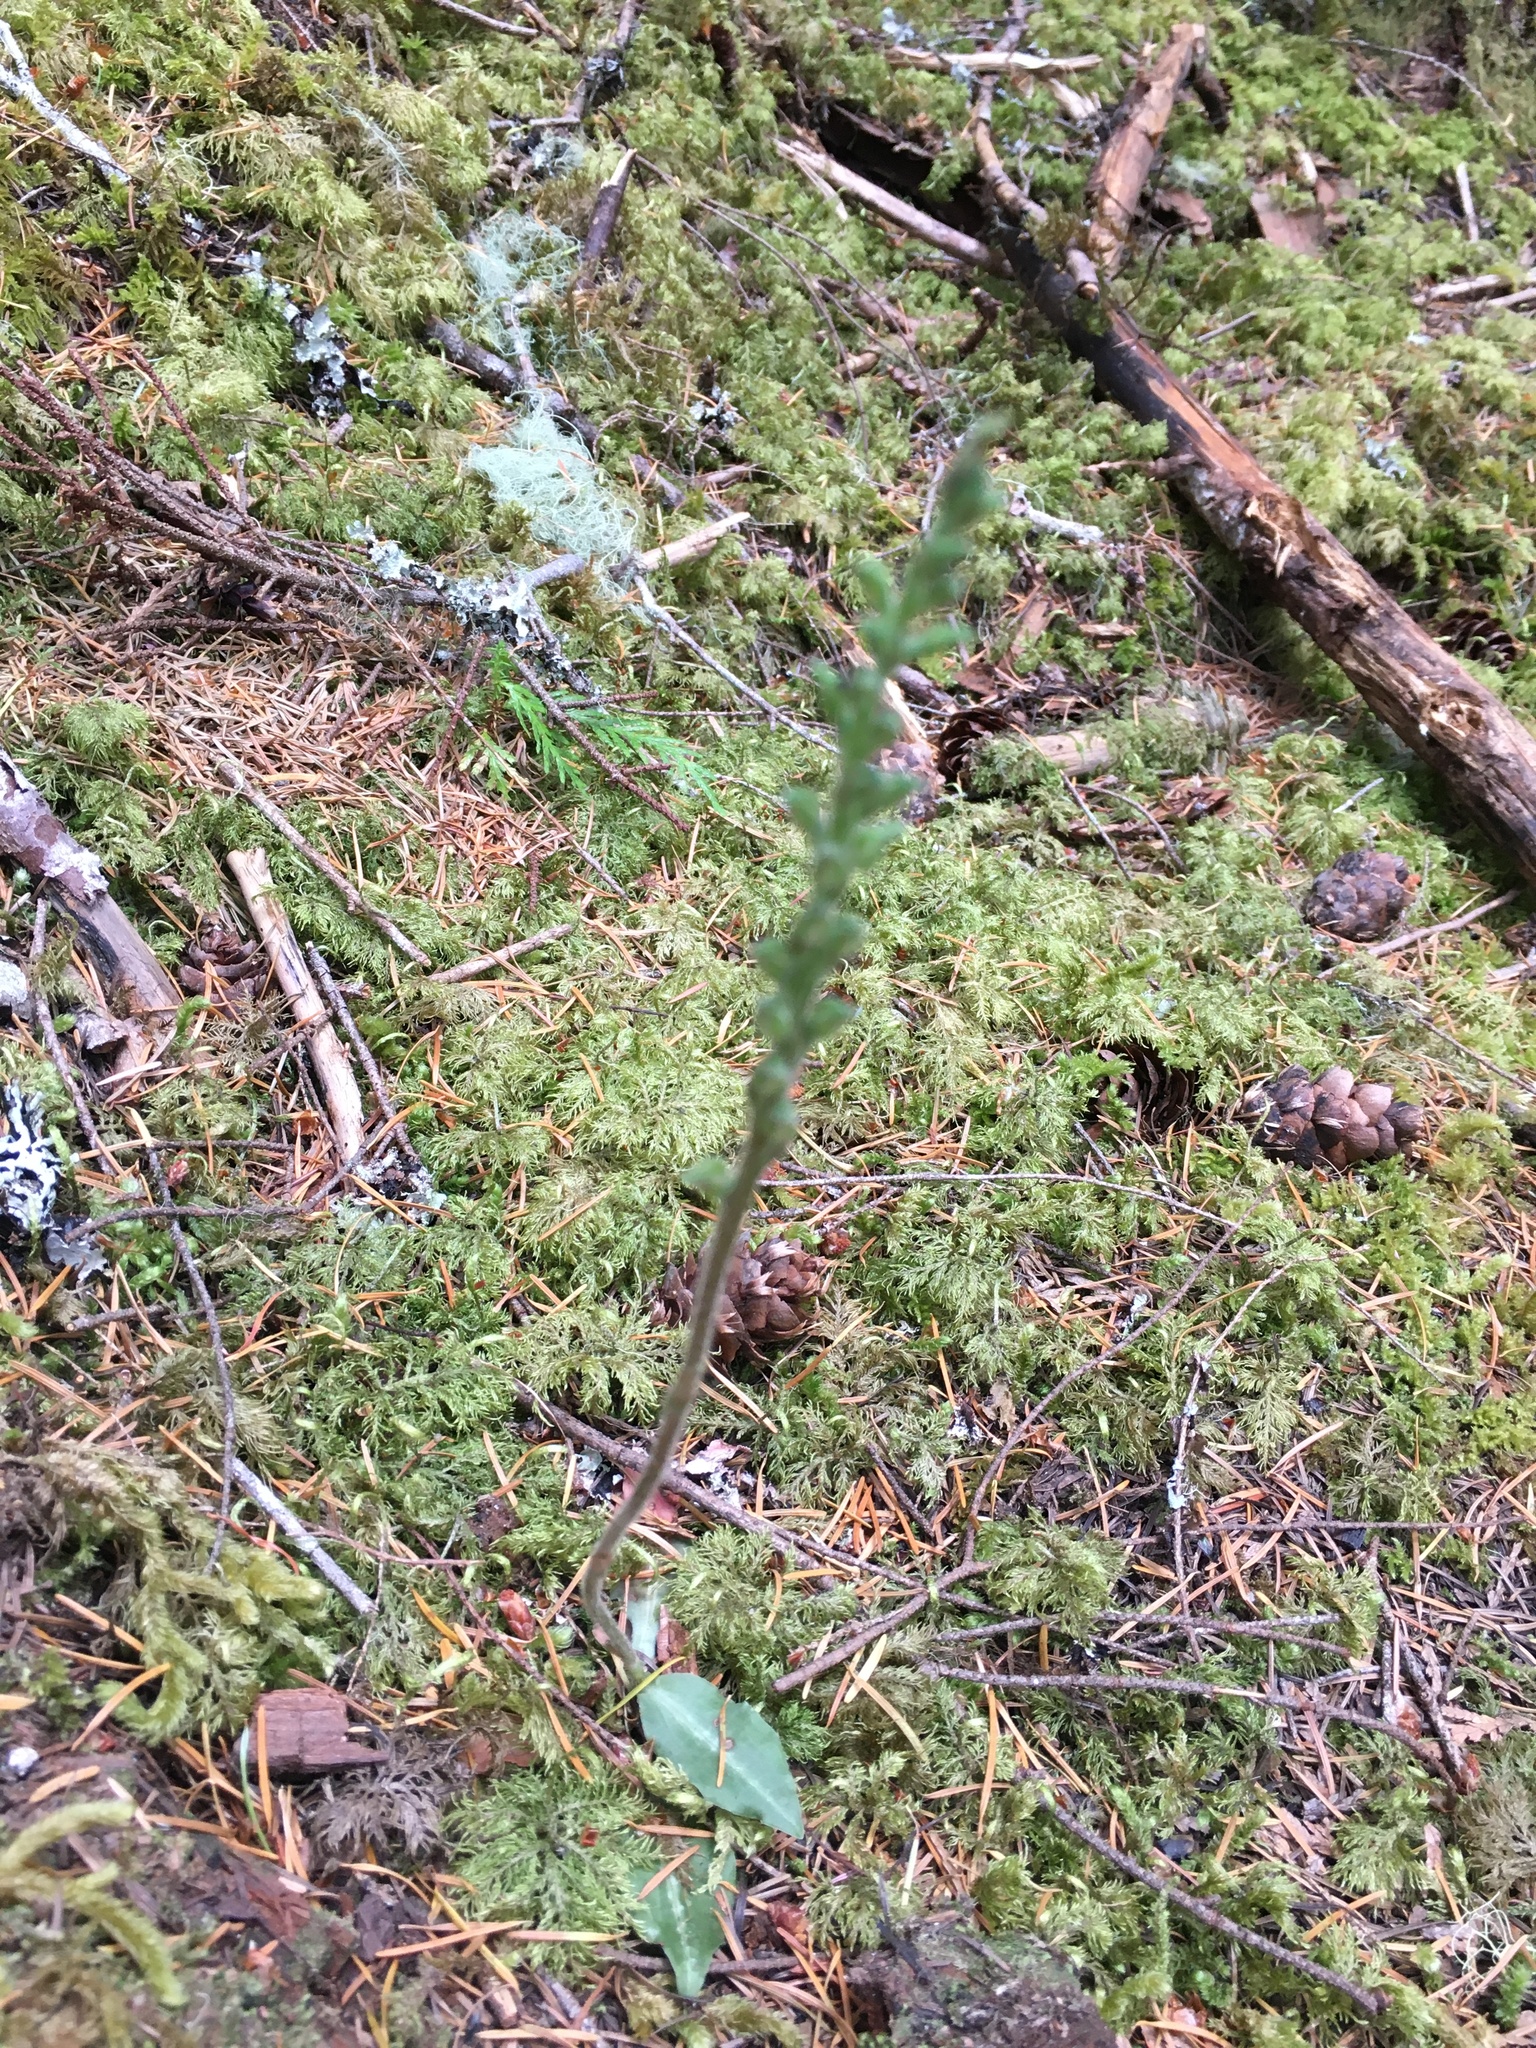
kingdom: Plantae
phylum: Tracheophyta
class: Liliopsida
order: Asparagales
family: Orchidaceae
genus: Goodyera
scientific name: Goodyera oblongifolia
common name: Giant rattlesnake-plantain
